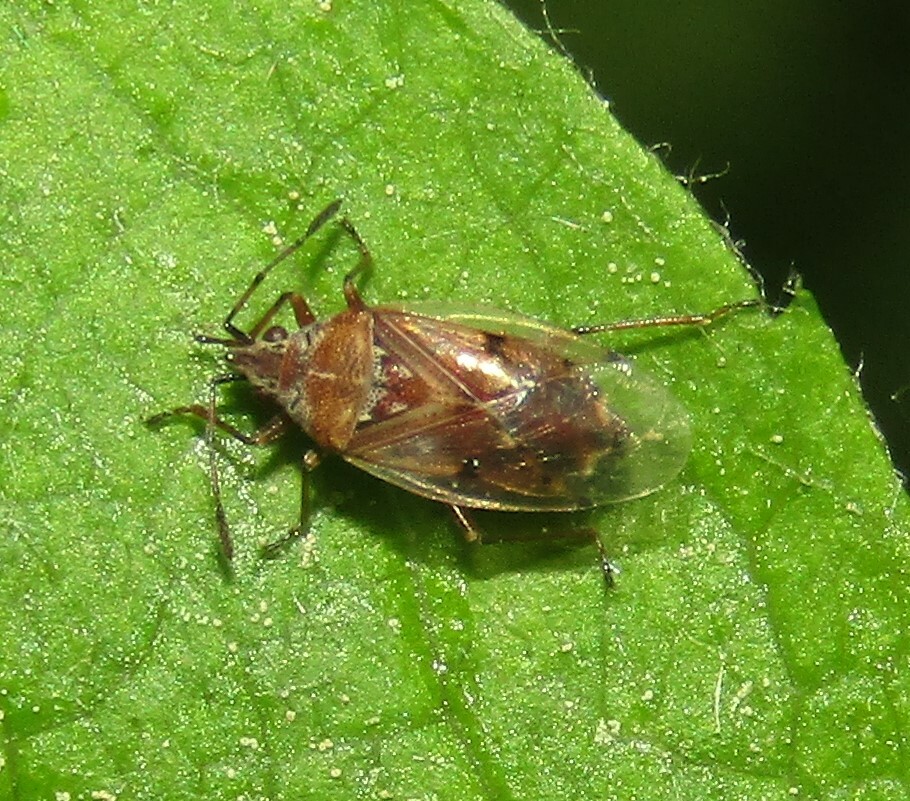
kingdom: Animalia
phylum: Arthropoda
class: Insecta
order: Hemiptera
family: Lygaeidae
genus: Kleidocerys
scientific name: Kleidocerys resedae
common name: Birch catkin bug
